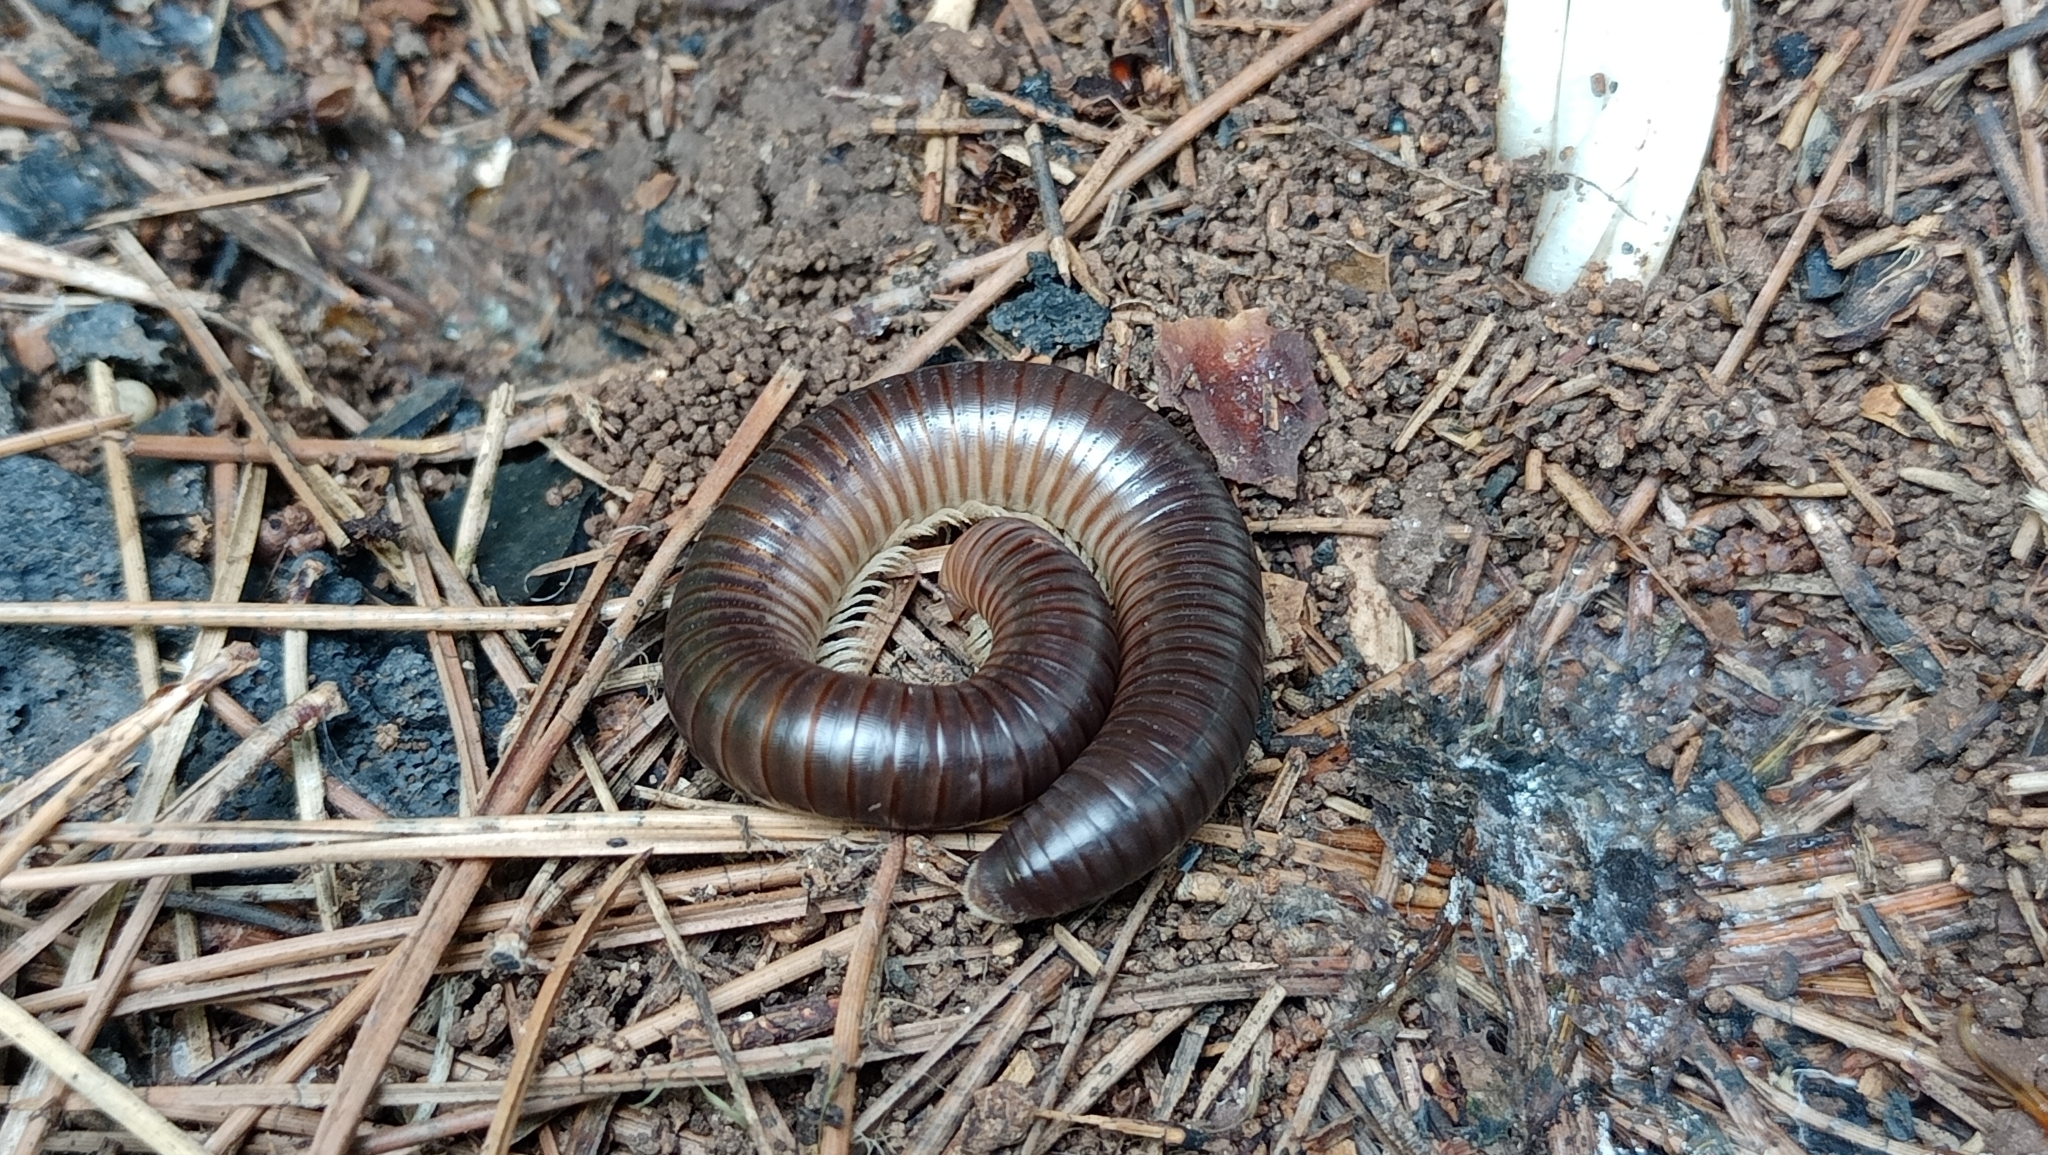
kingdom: Animalia
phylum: Arthropoda
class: Diplopoda
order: Julida
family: Julidae
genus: Pachyiulus
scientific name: Pachyiulus flavipes
